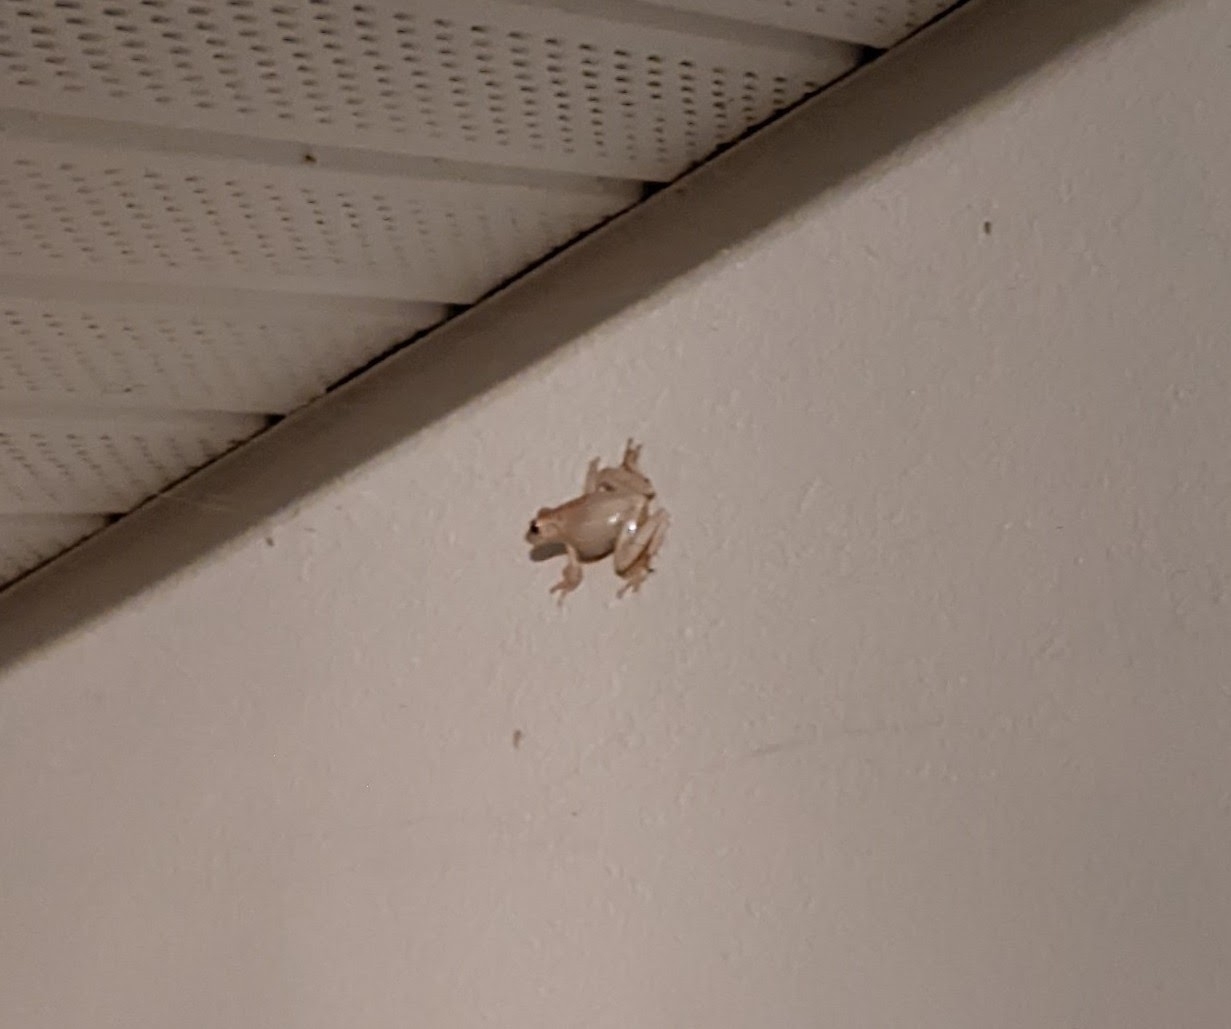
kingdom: Animalia
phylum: Chordata
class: Amphibia
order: Anura
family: Hylidae
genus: Osteopilus
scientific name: Osteopilus septentrionalis
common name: Cuban treefrog
